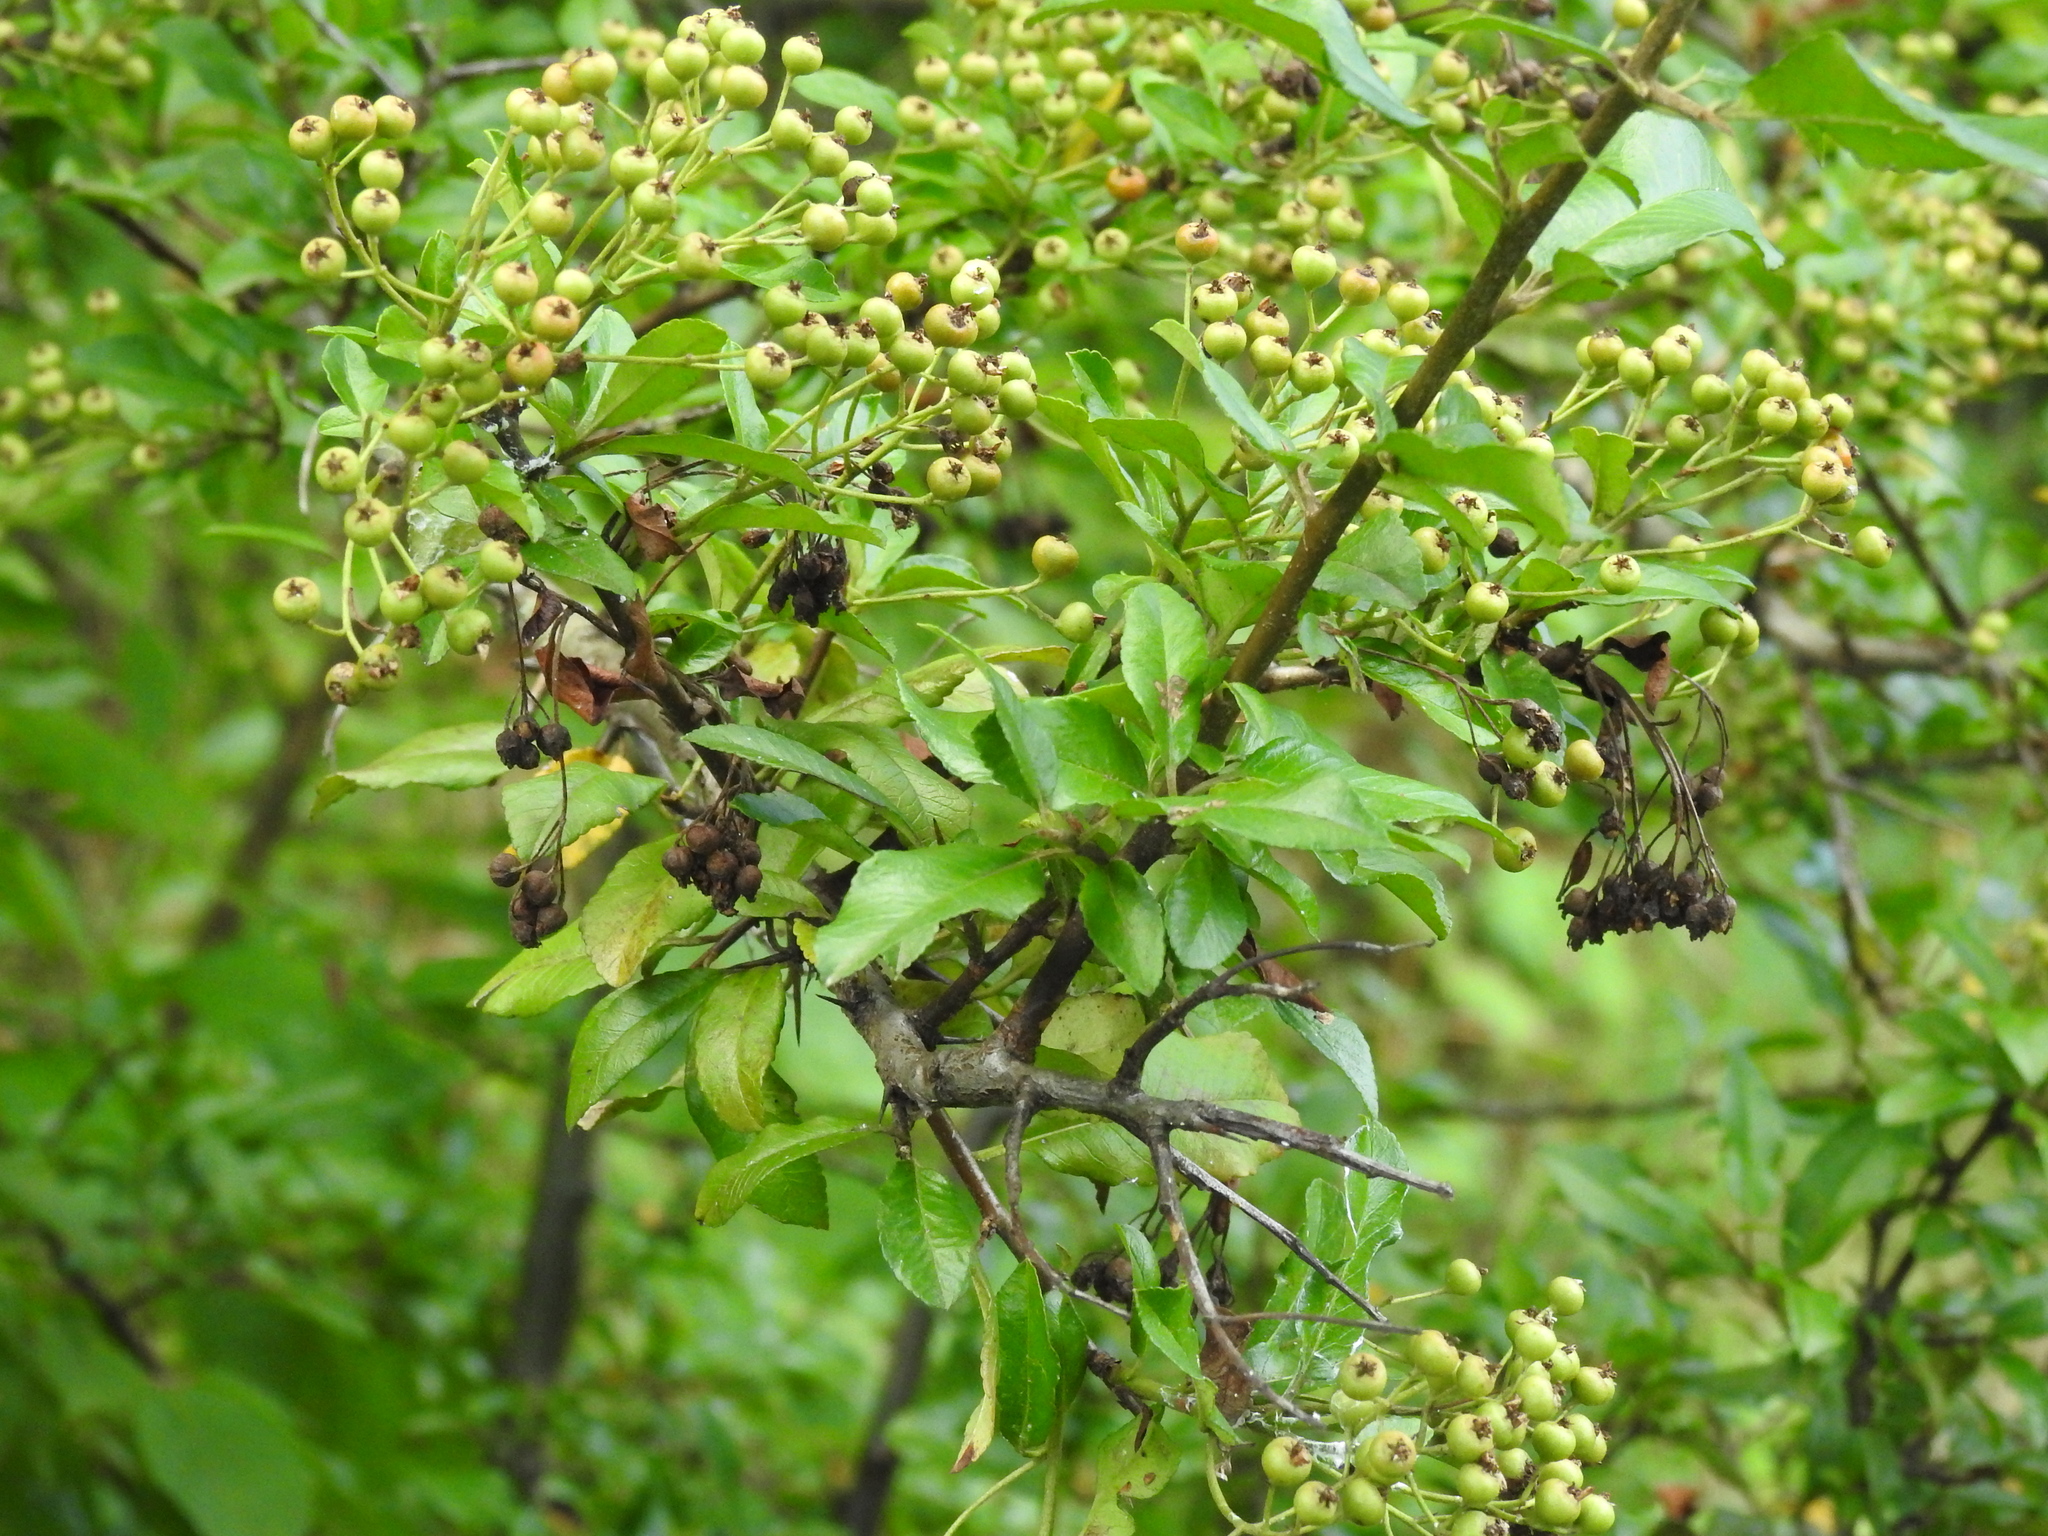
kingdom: Plantae
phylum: Tracheophyta
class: Magnoliopsida
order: Rosales
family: Rosaceae
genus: Pyracantha
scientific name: Pyracantha coccinea
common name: Firethorn
